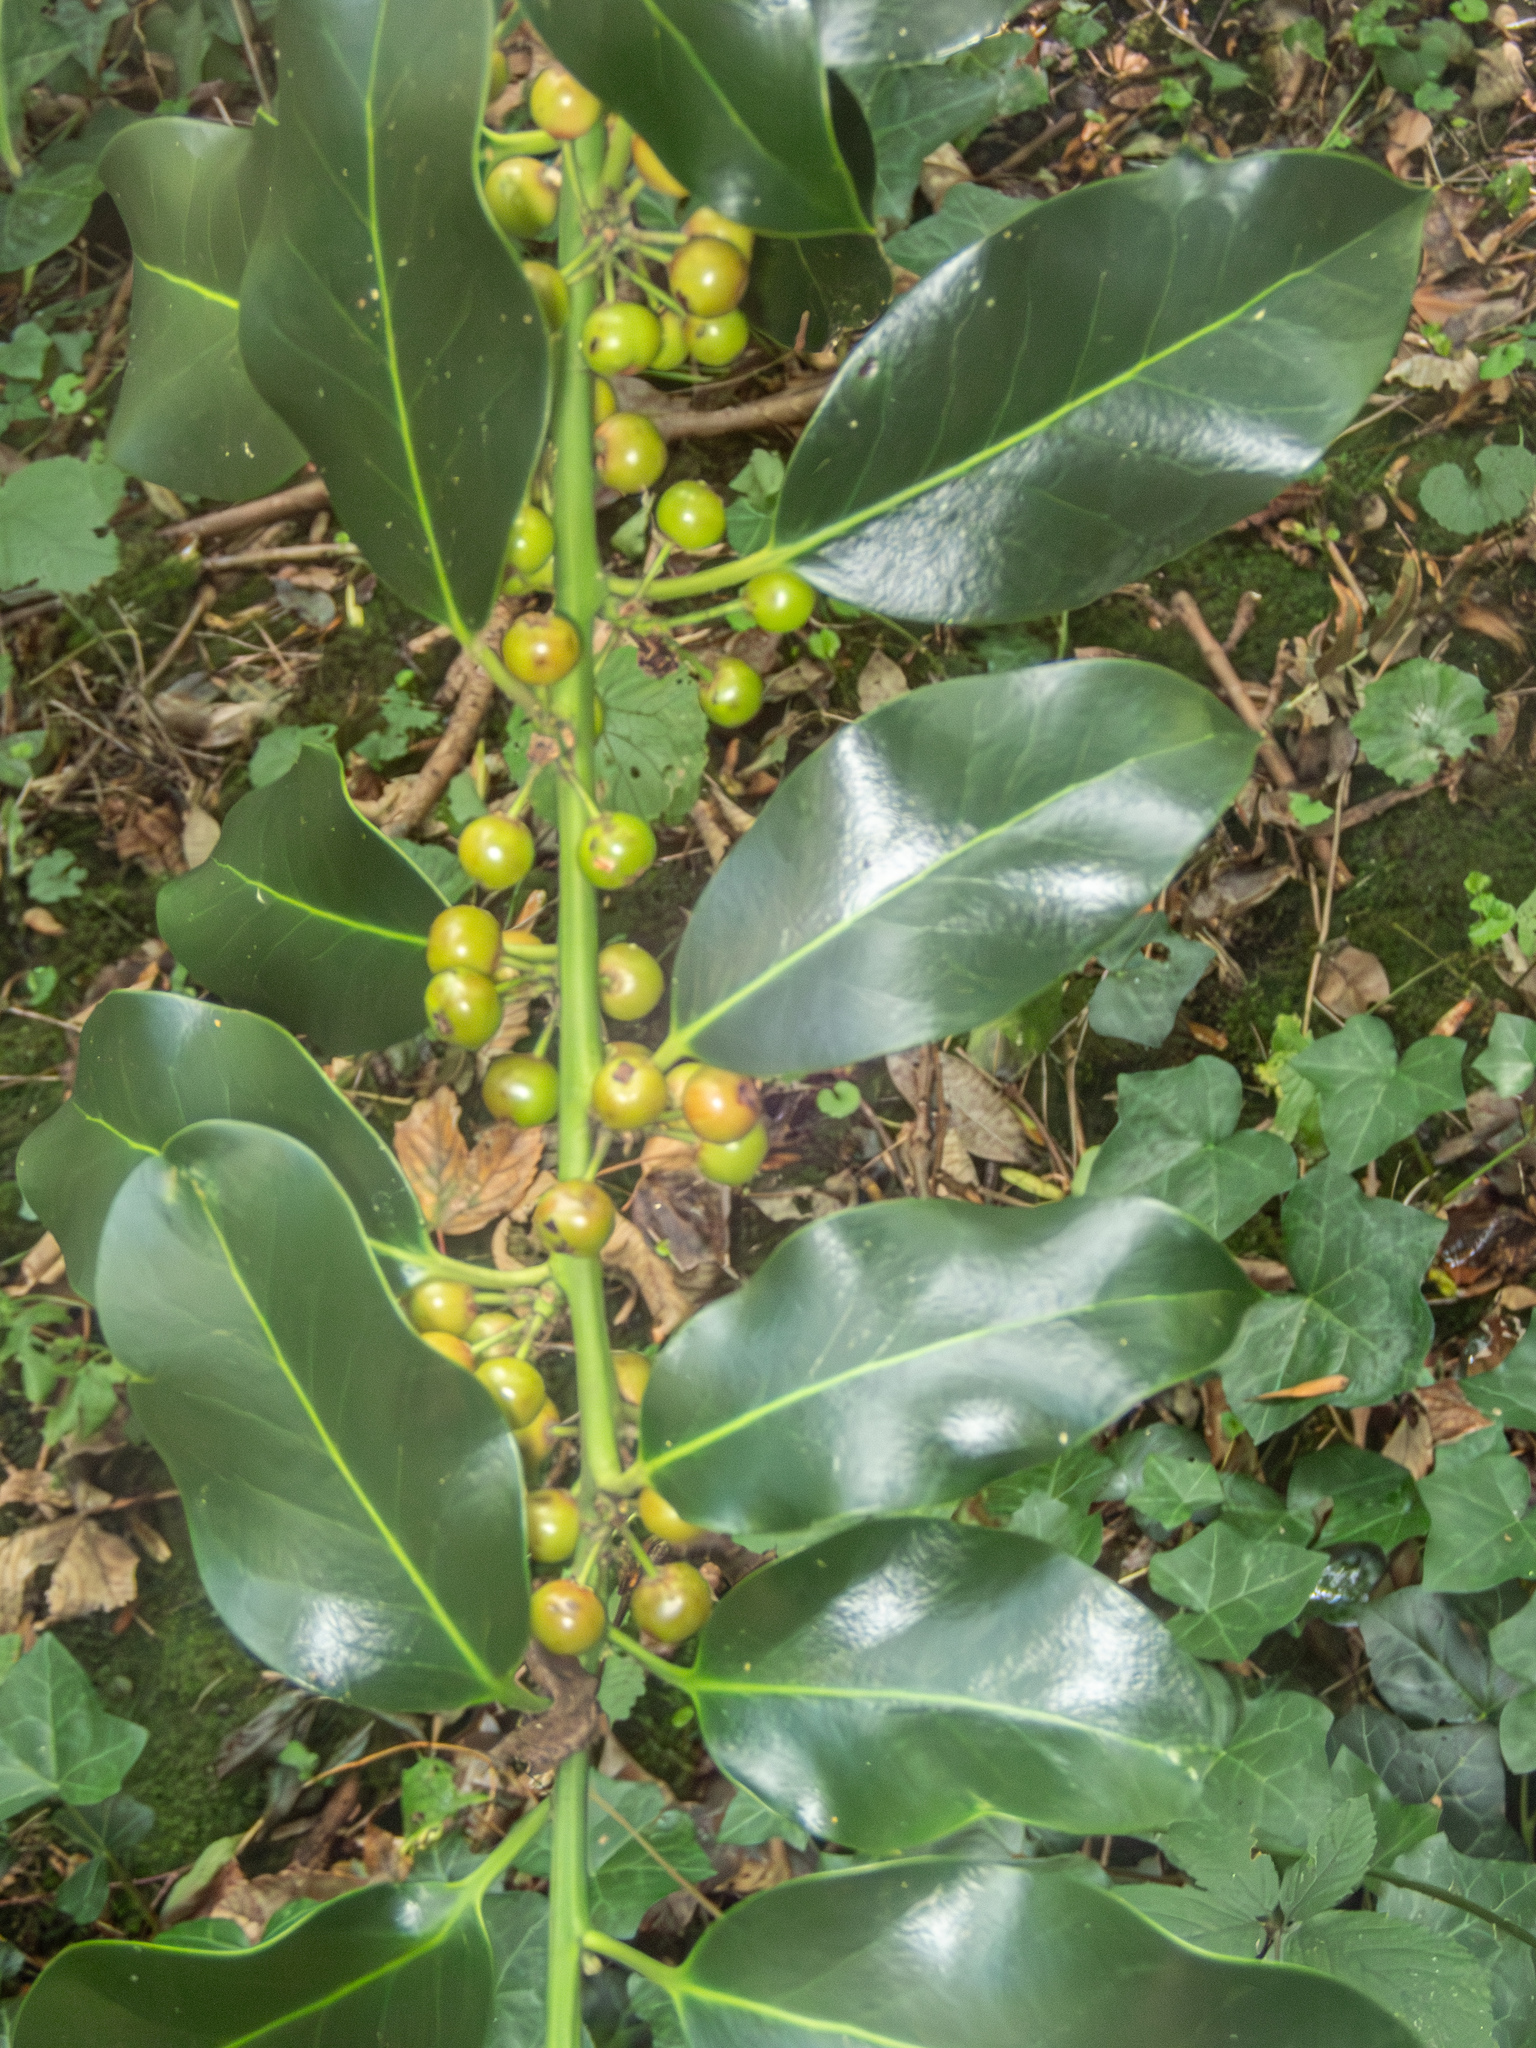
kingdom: Plantae
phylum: Tracheophyta
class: Magnoliopsida
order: Aquifoliales
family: Aquifoliaceae
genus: Ilex
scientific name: Ilex aquifolium
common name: English holly
